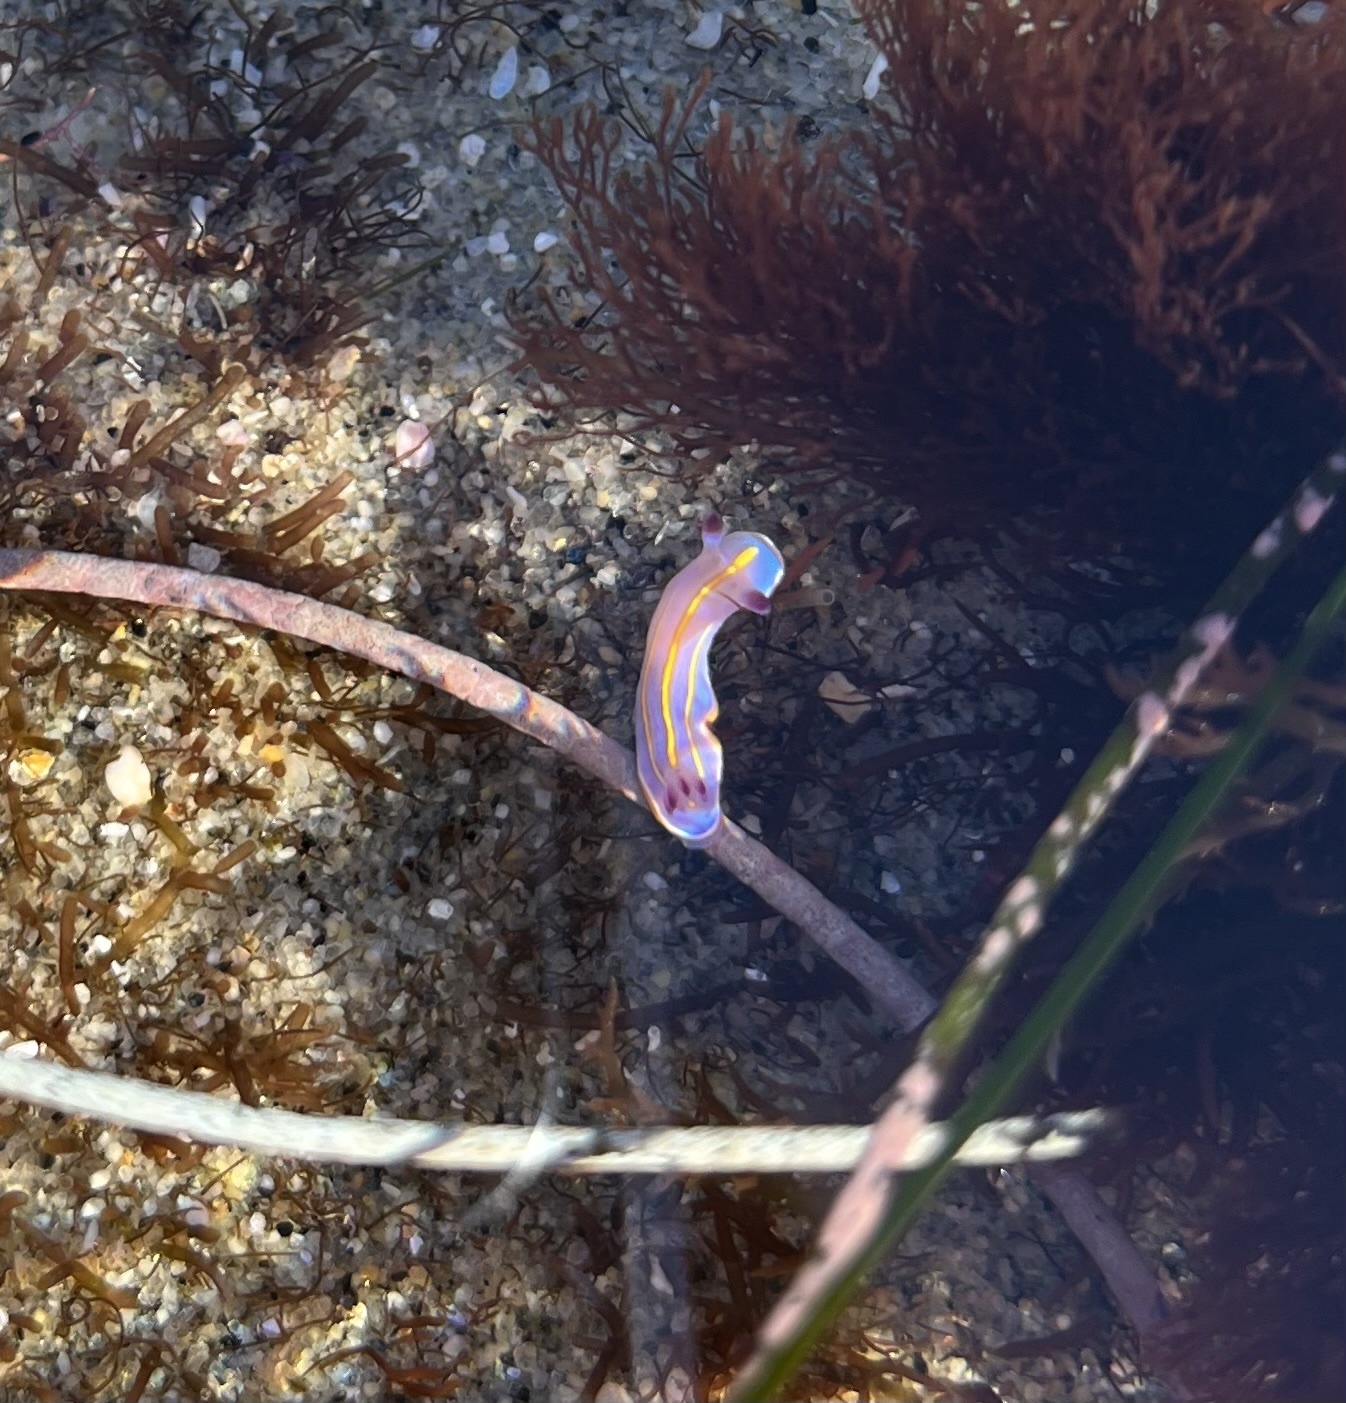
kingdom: Animalia
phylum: Mollusca
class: Gastropoda
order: Nudibranchia
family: Chromodorididae
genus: Felimida
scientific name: Felimida macfarlandi
